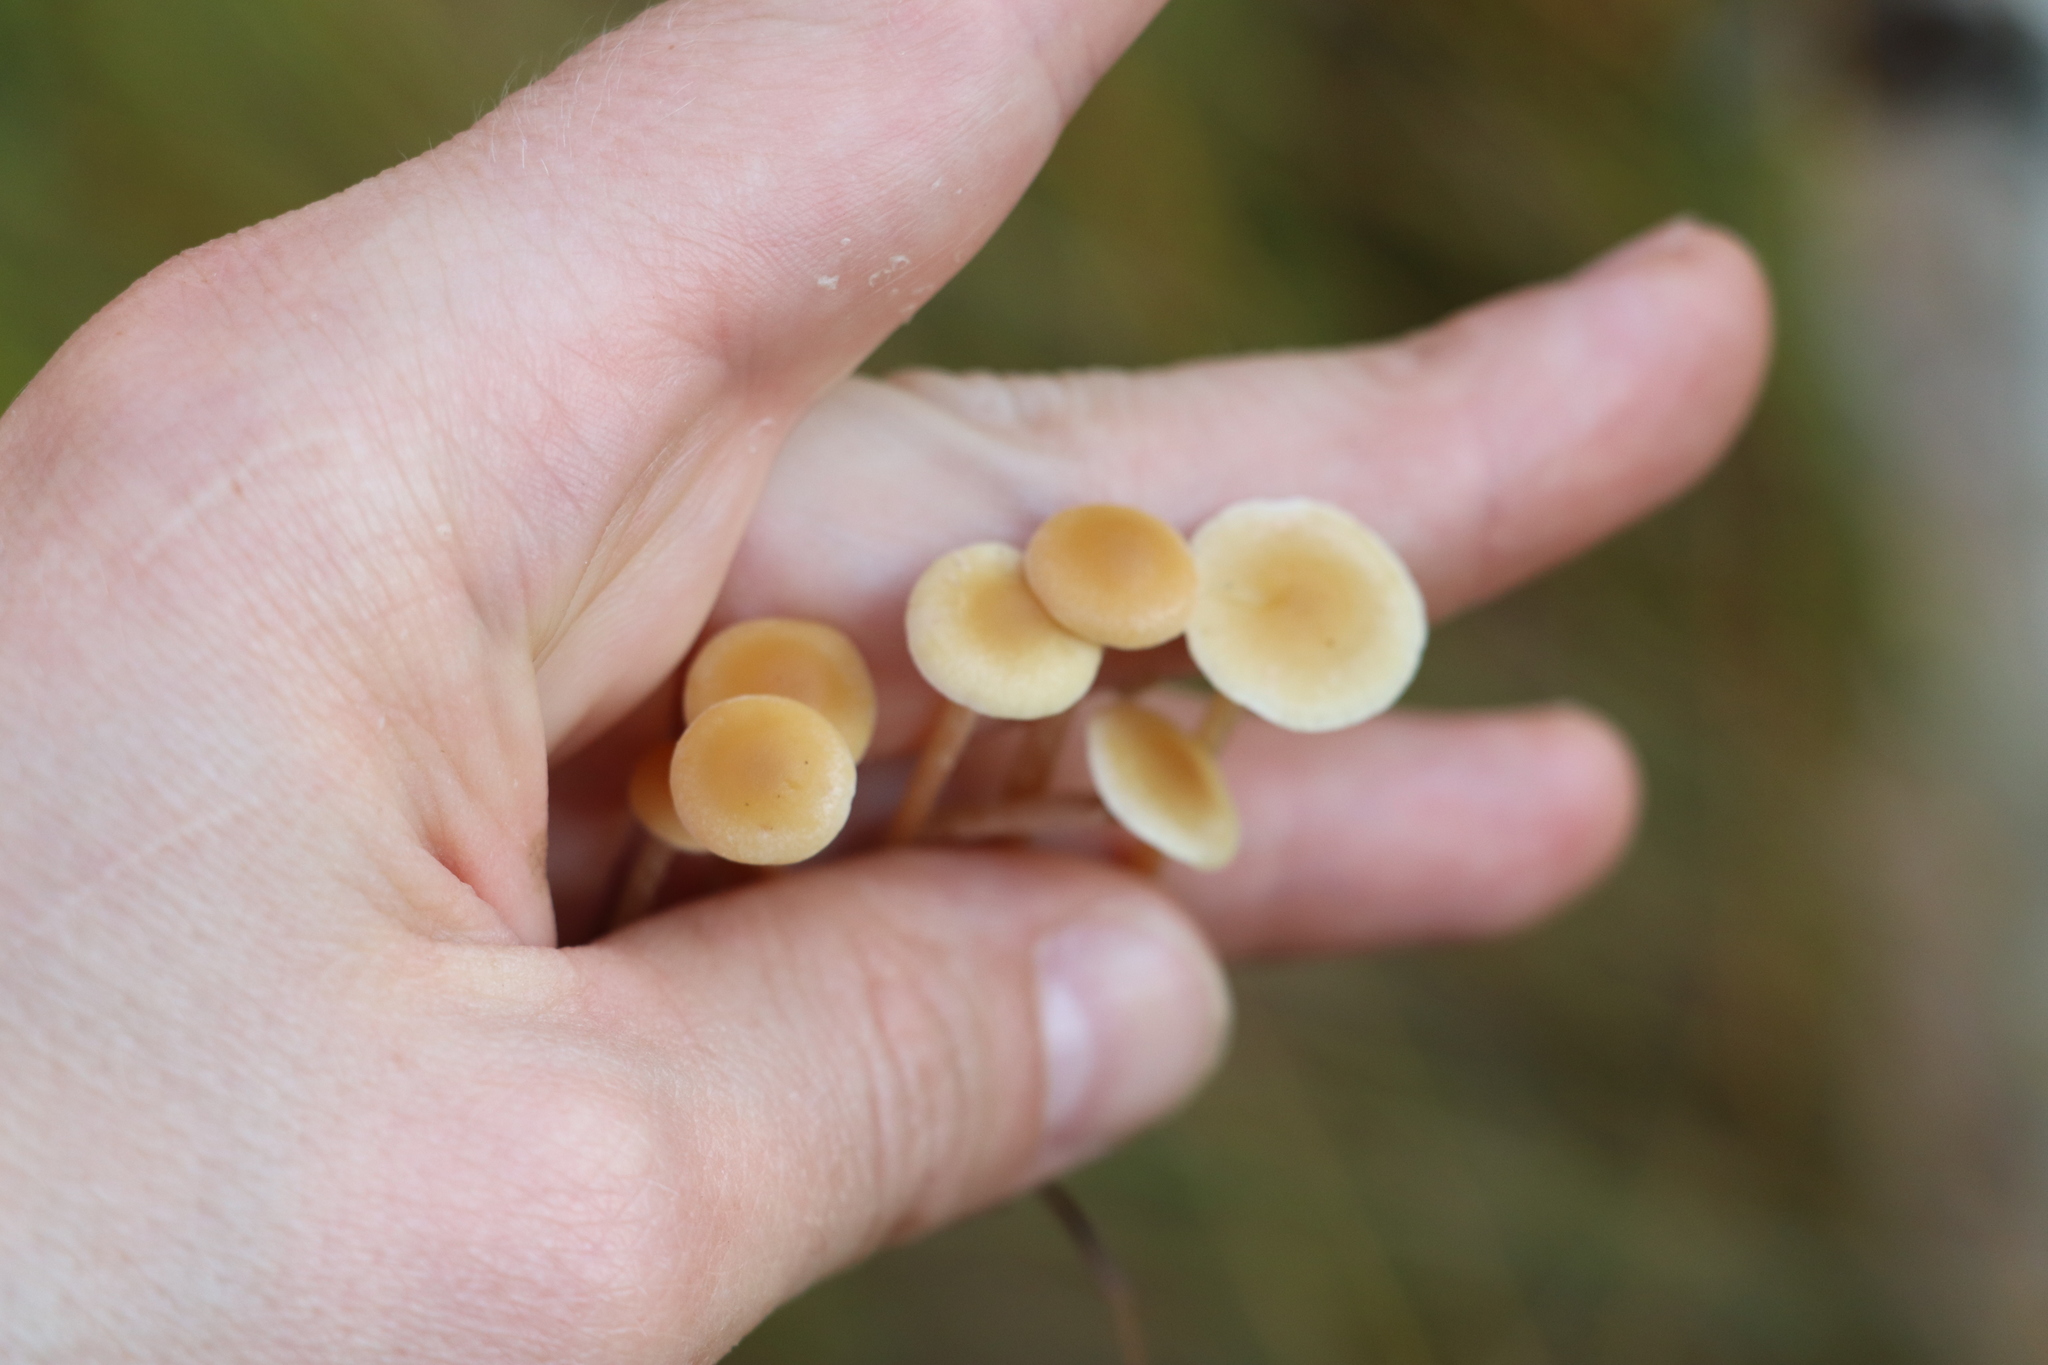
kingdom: Fungi
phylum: Basidiomycota
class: Agaricomycetes
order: Agaricales
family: Strophariaceae
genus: Hypholoma
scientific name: Hypholoma elongatum
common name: Sphagnum brownie
